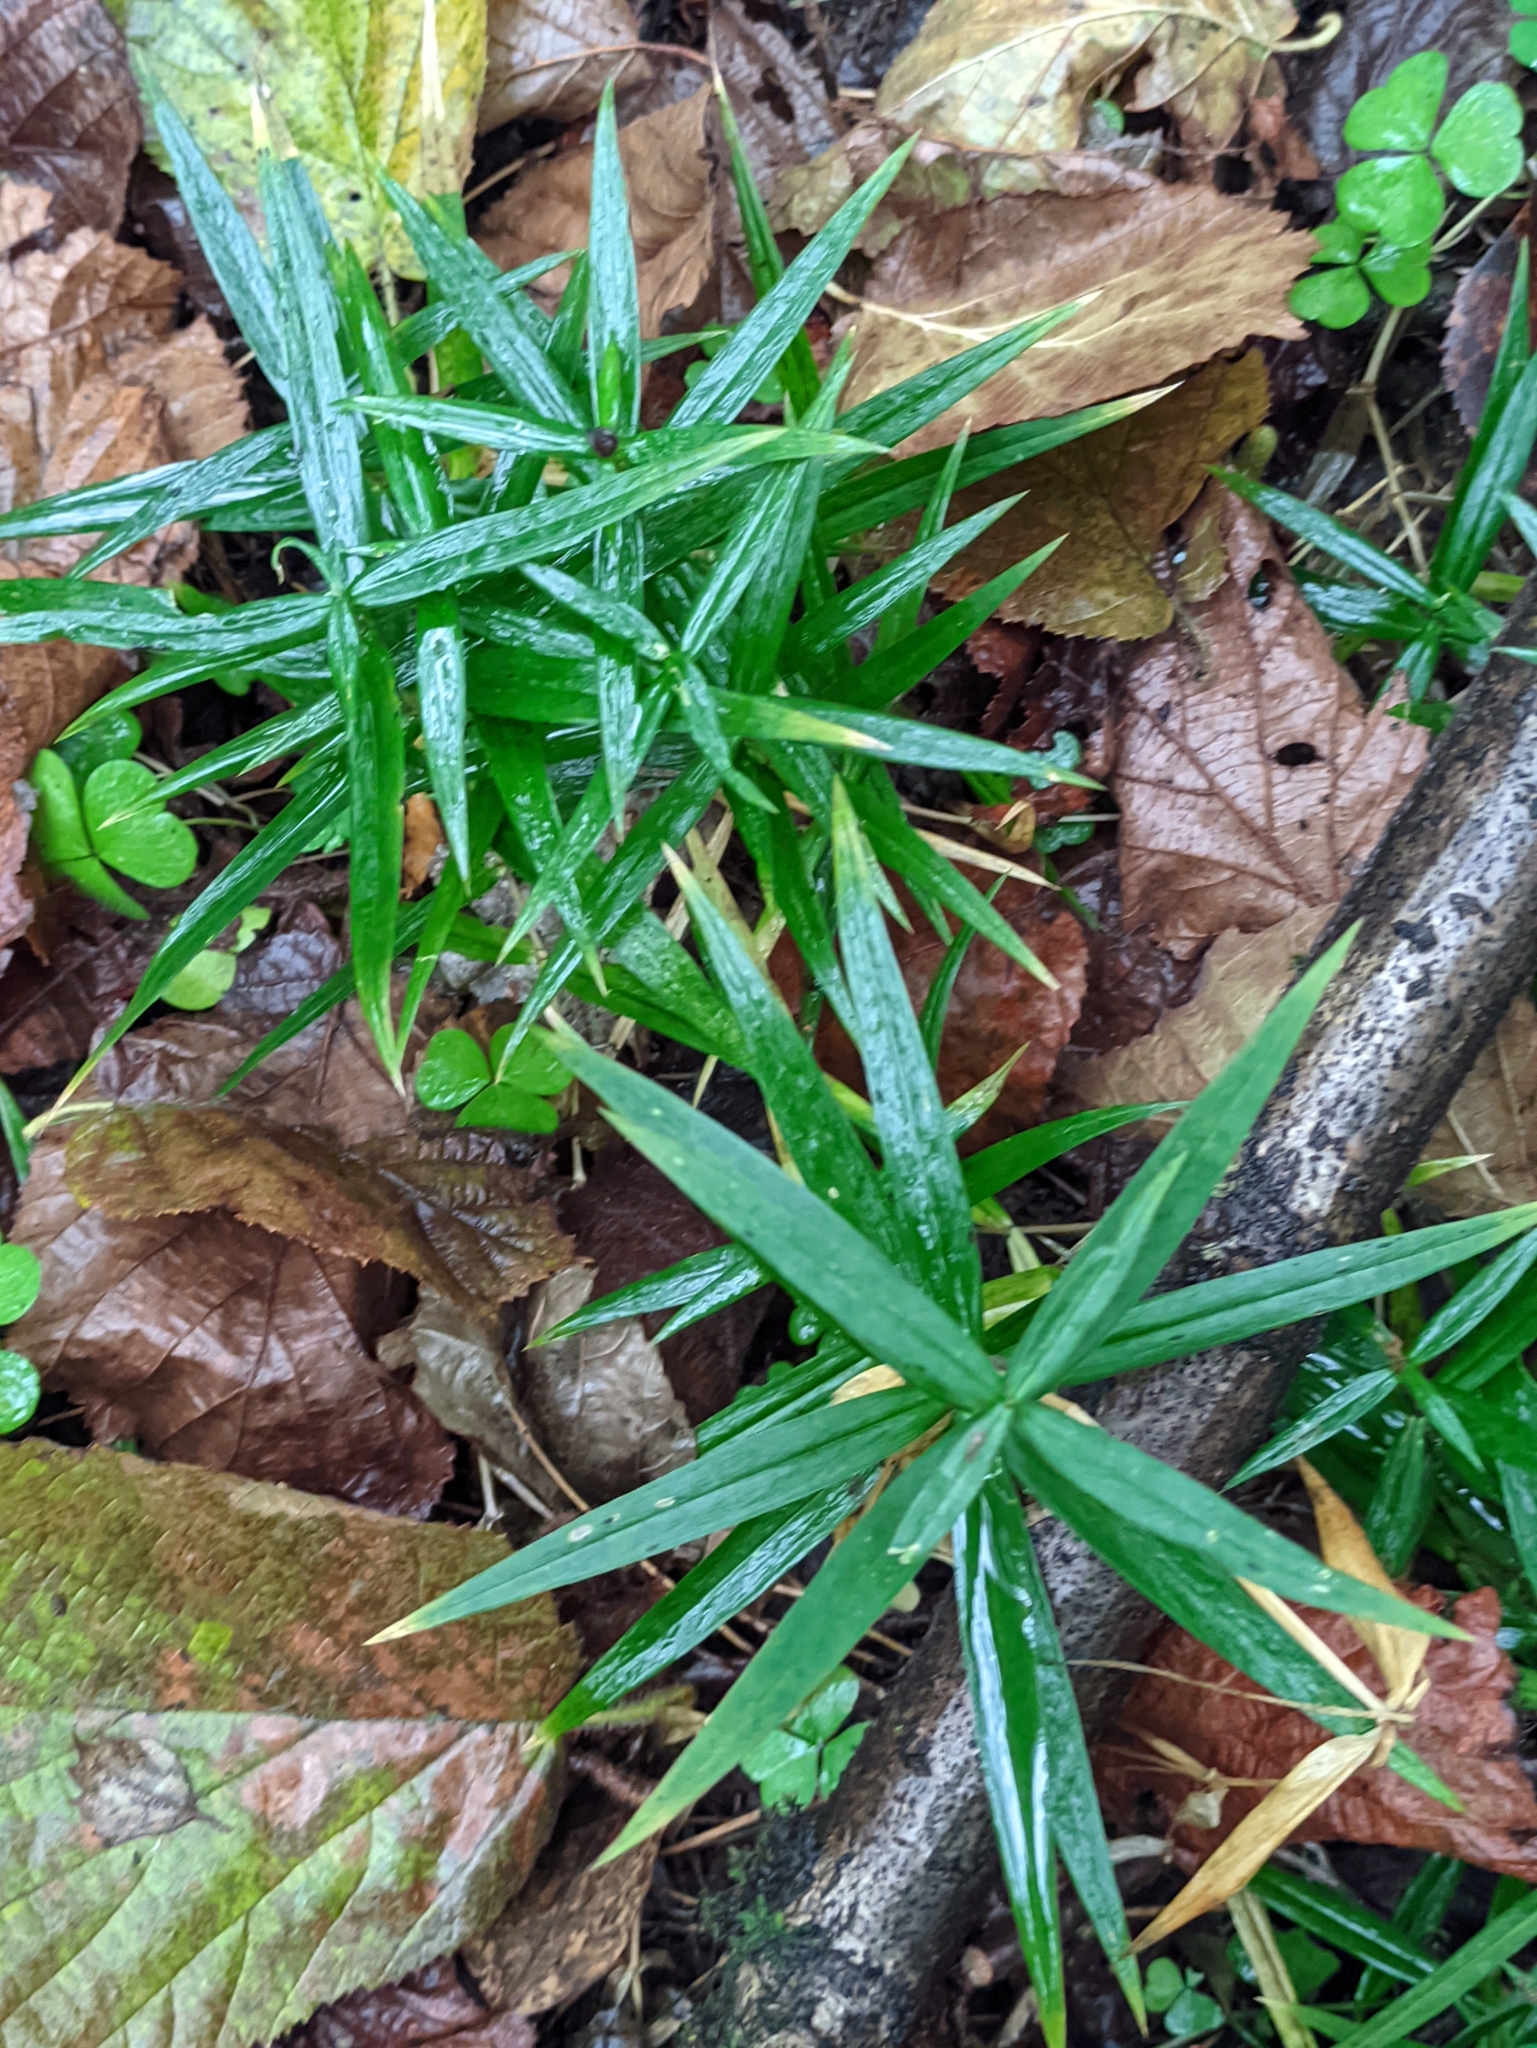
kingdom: Plantae
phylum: Tracheophyta
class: Magnoliopsida
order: Caryophyllales
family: Caryophyllaceae
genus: Rabelera
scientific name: Rabelera holostea
